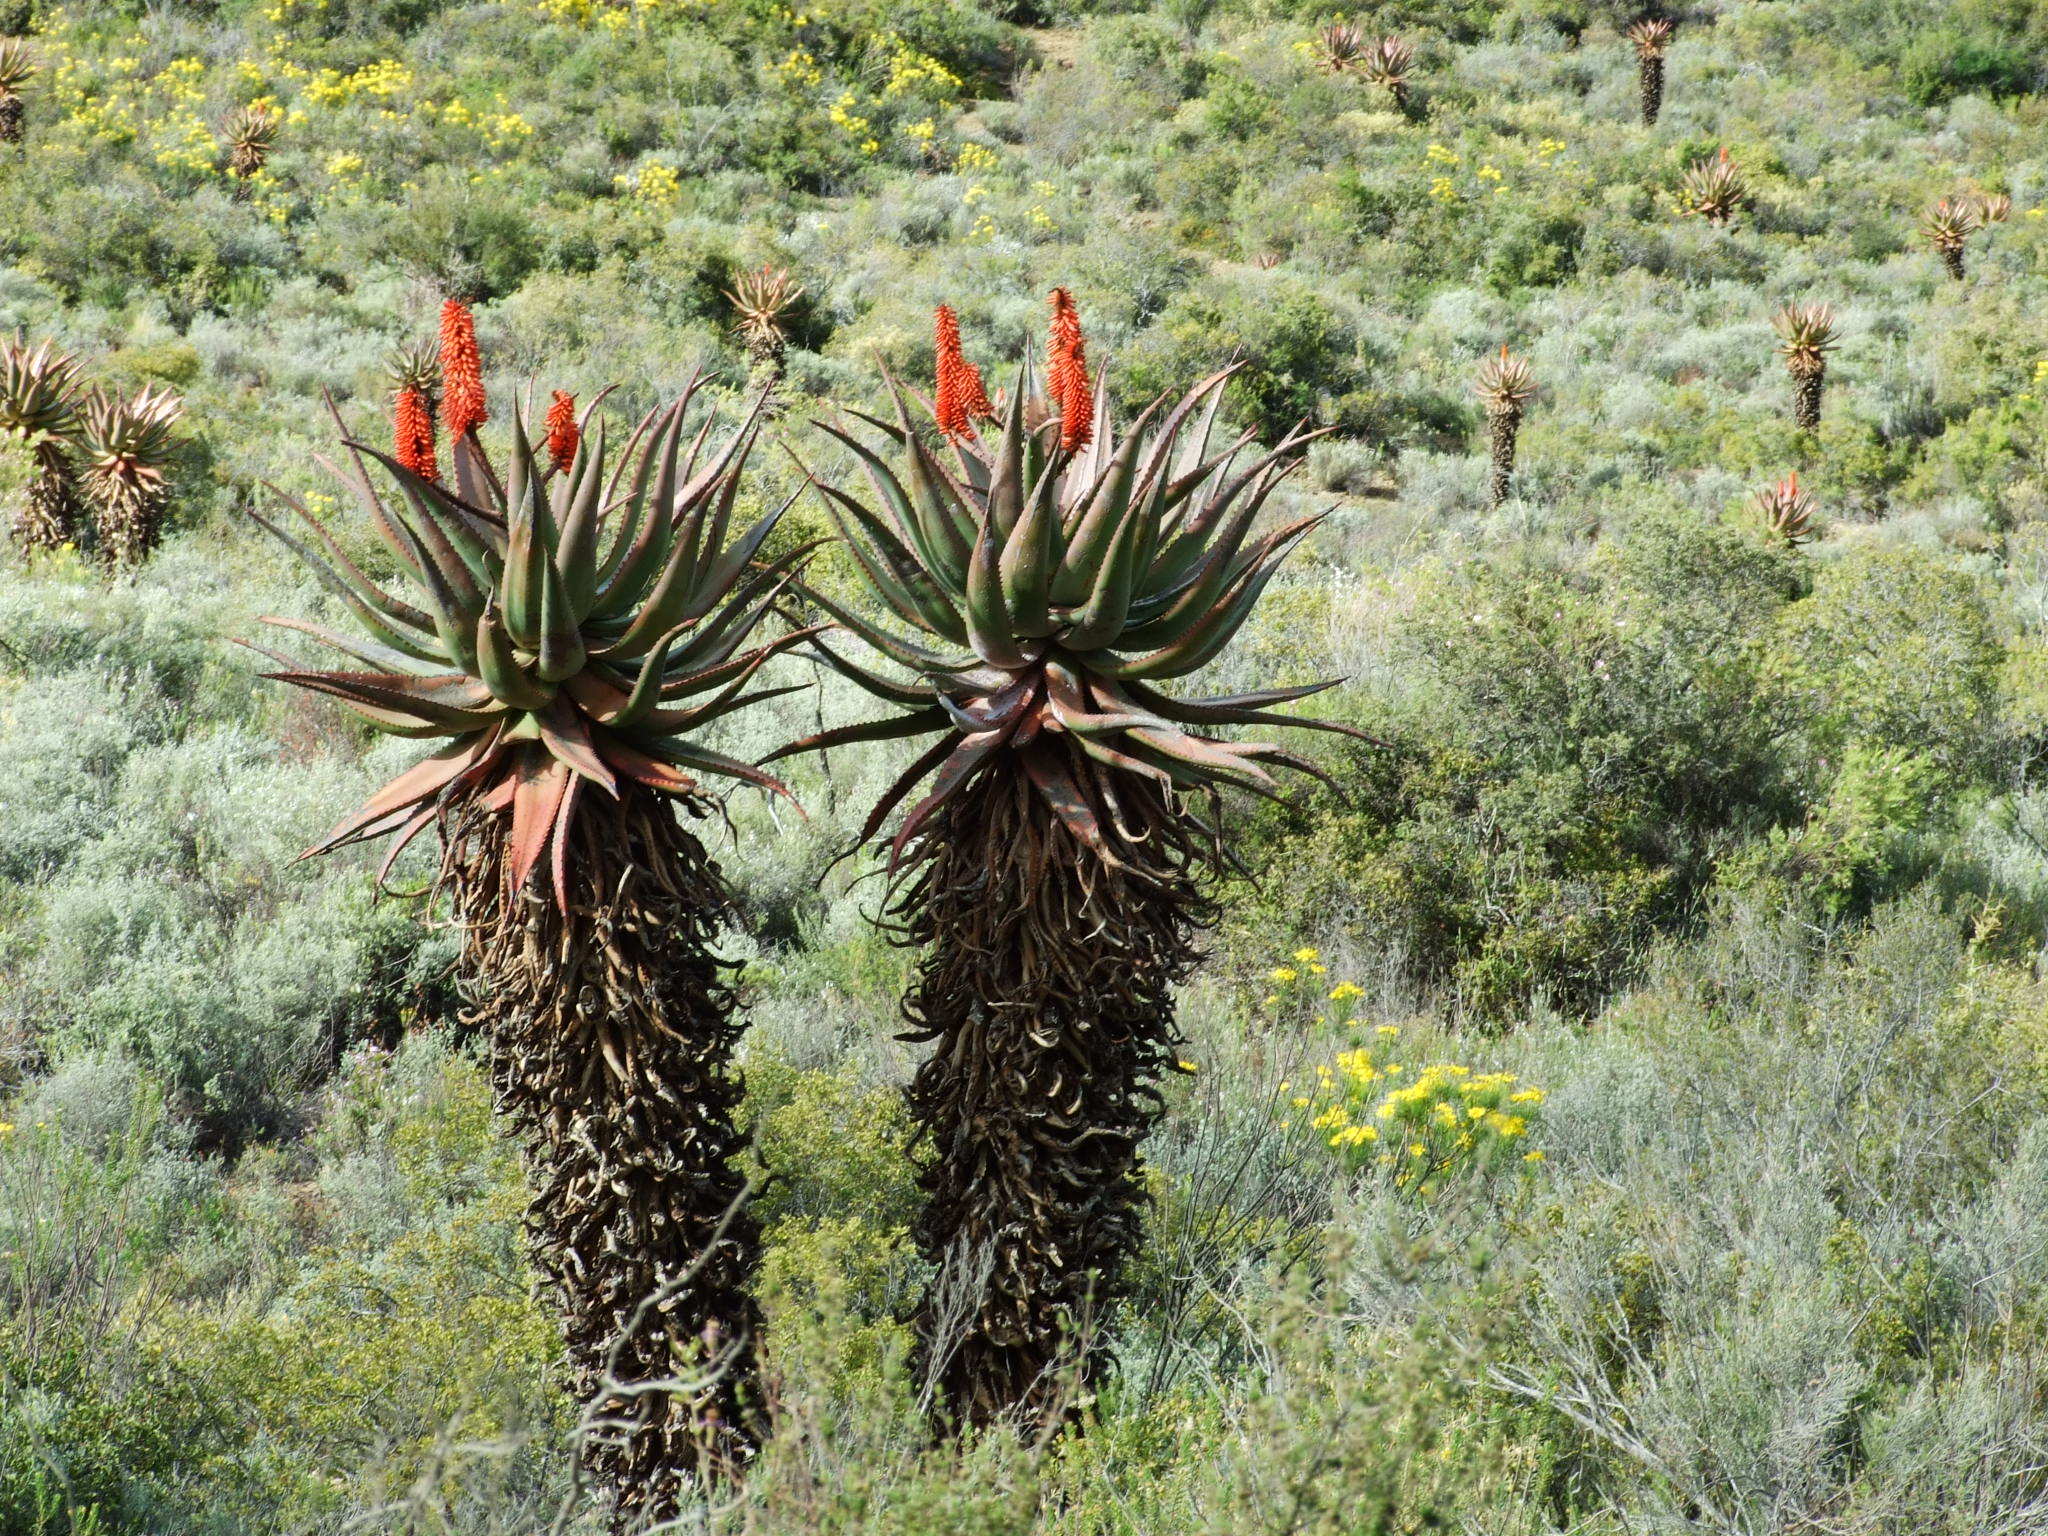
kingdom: Plantae
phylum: Tracheophyta
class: Liliopsida
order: Asparagales
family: Asphodelaceae
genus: Aloe
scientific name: Aloe ferox
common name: Bitter aloe
